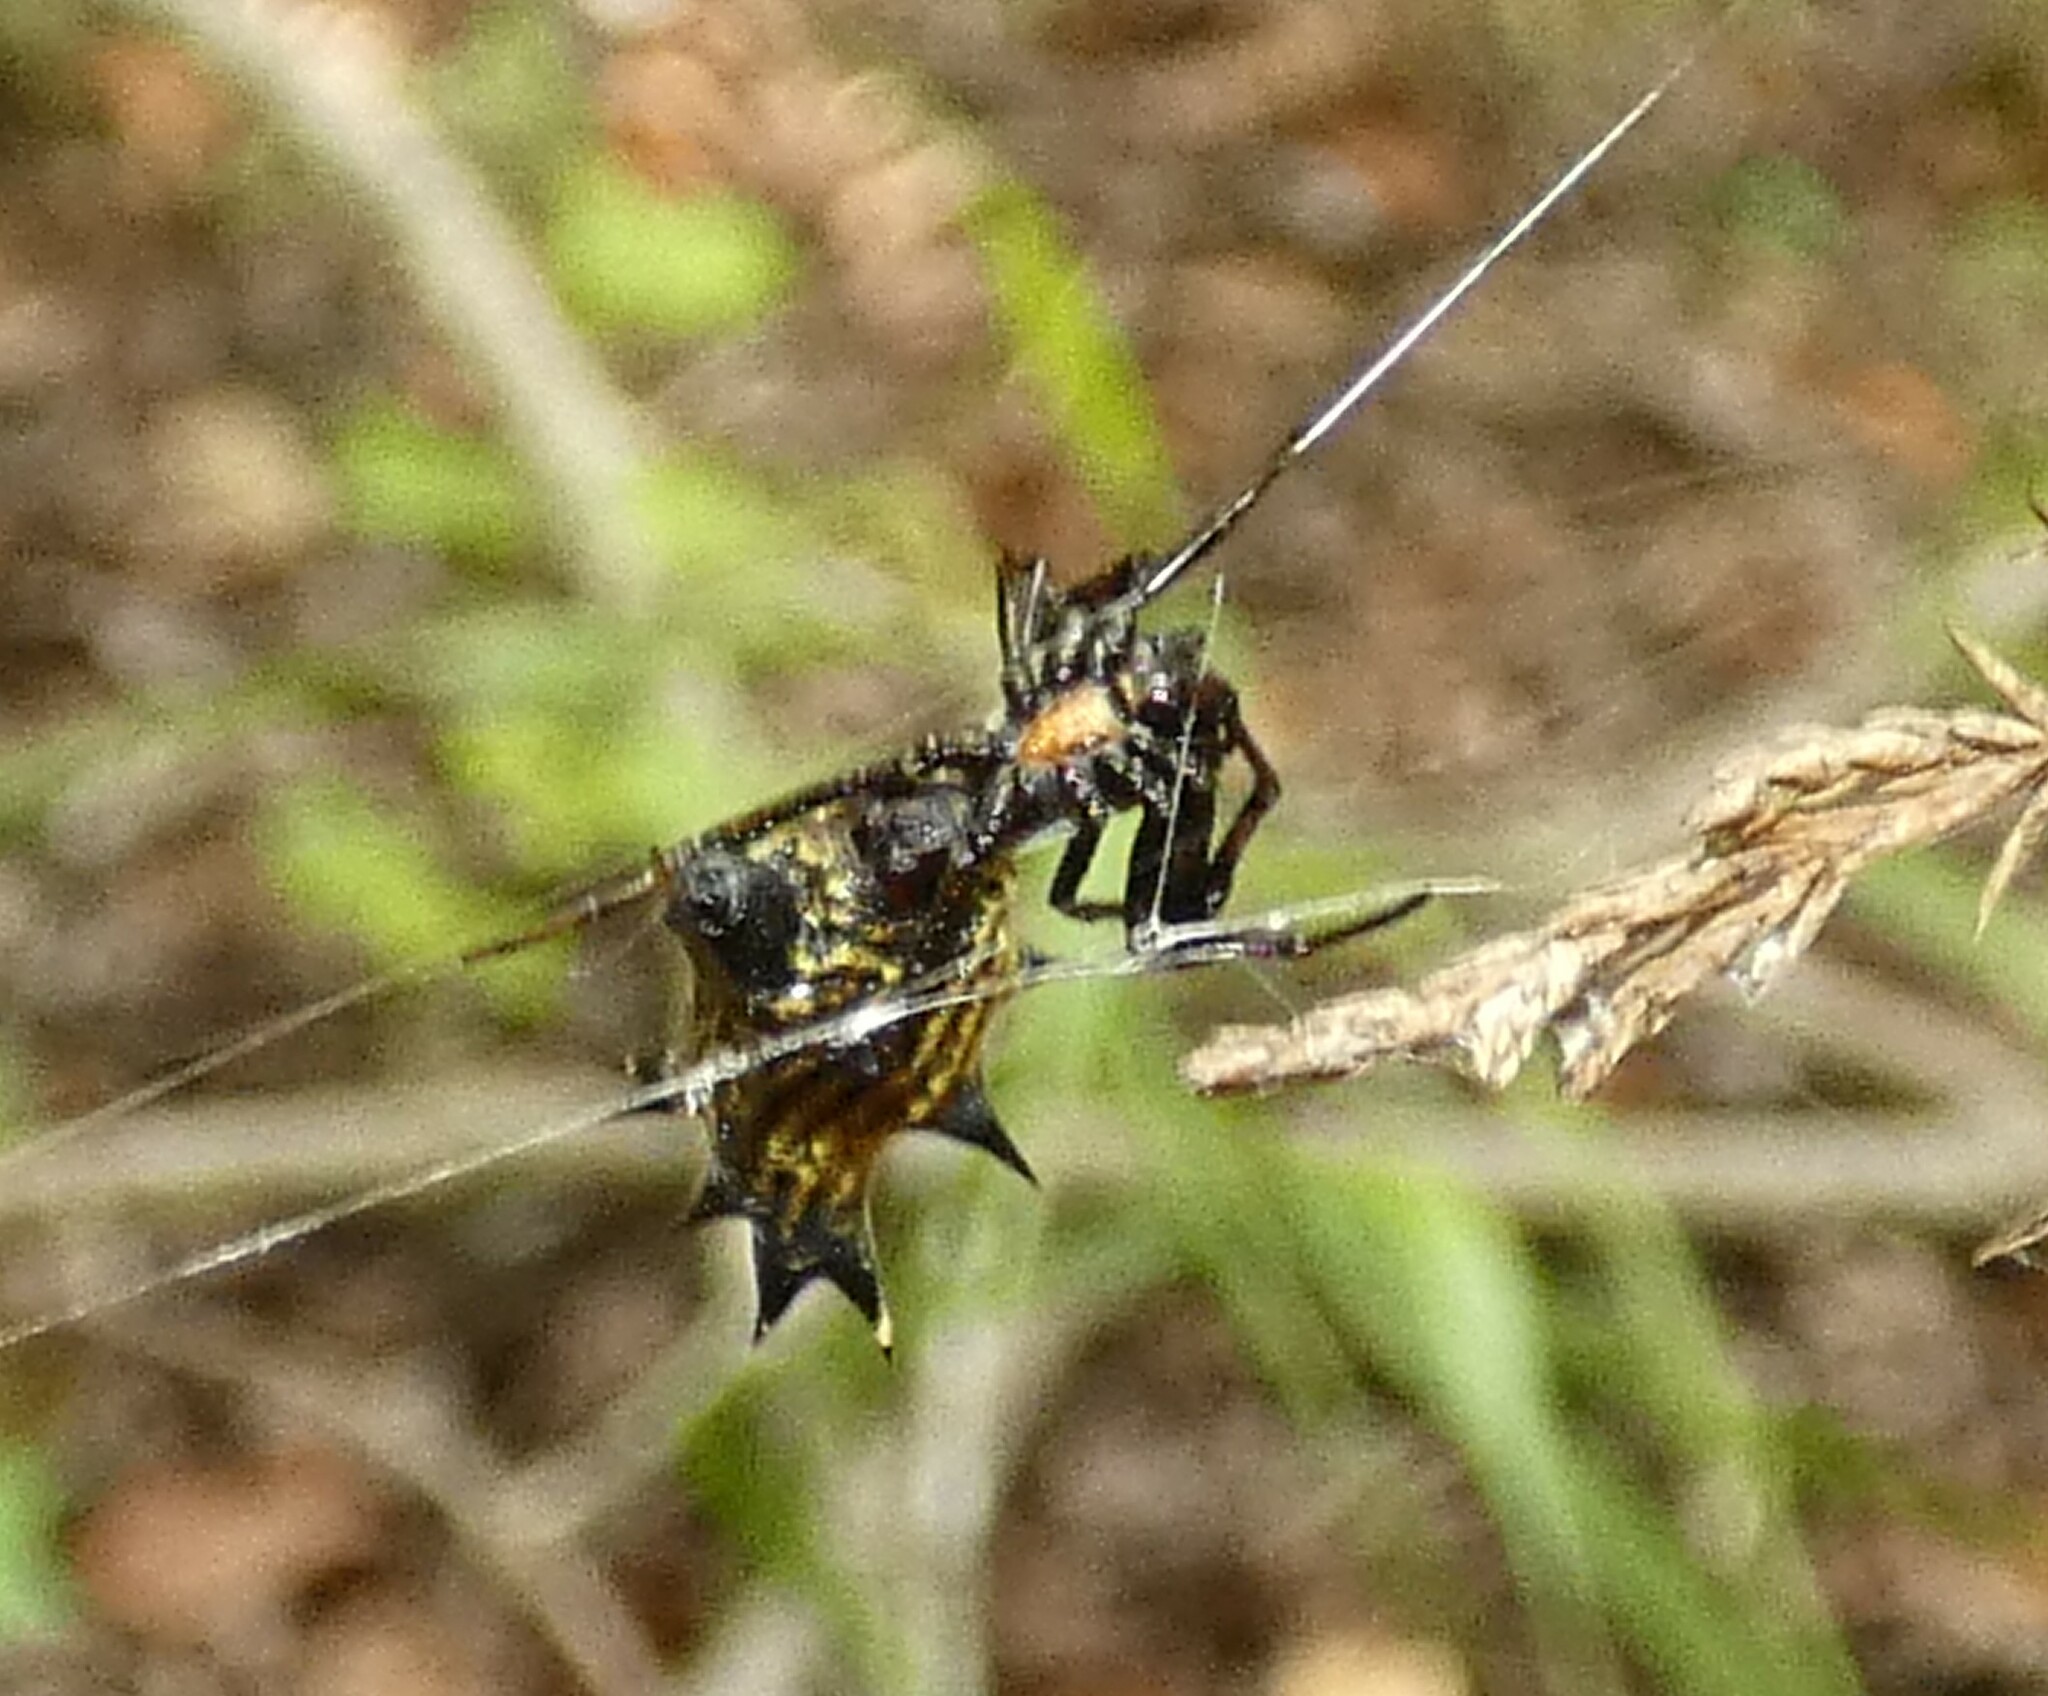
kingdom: Animalia
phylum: Arthropoda
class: Arachnida
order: Araneae
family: Araneidae
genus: Micrathena
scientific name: Micrathena gracilis
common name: Orb weavers
